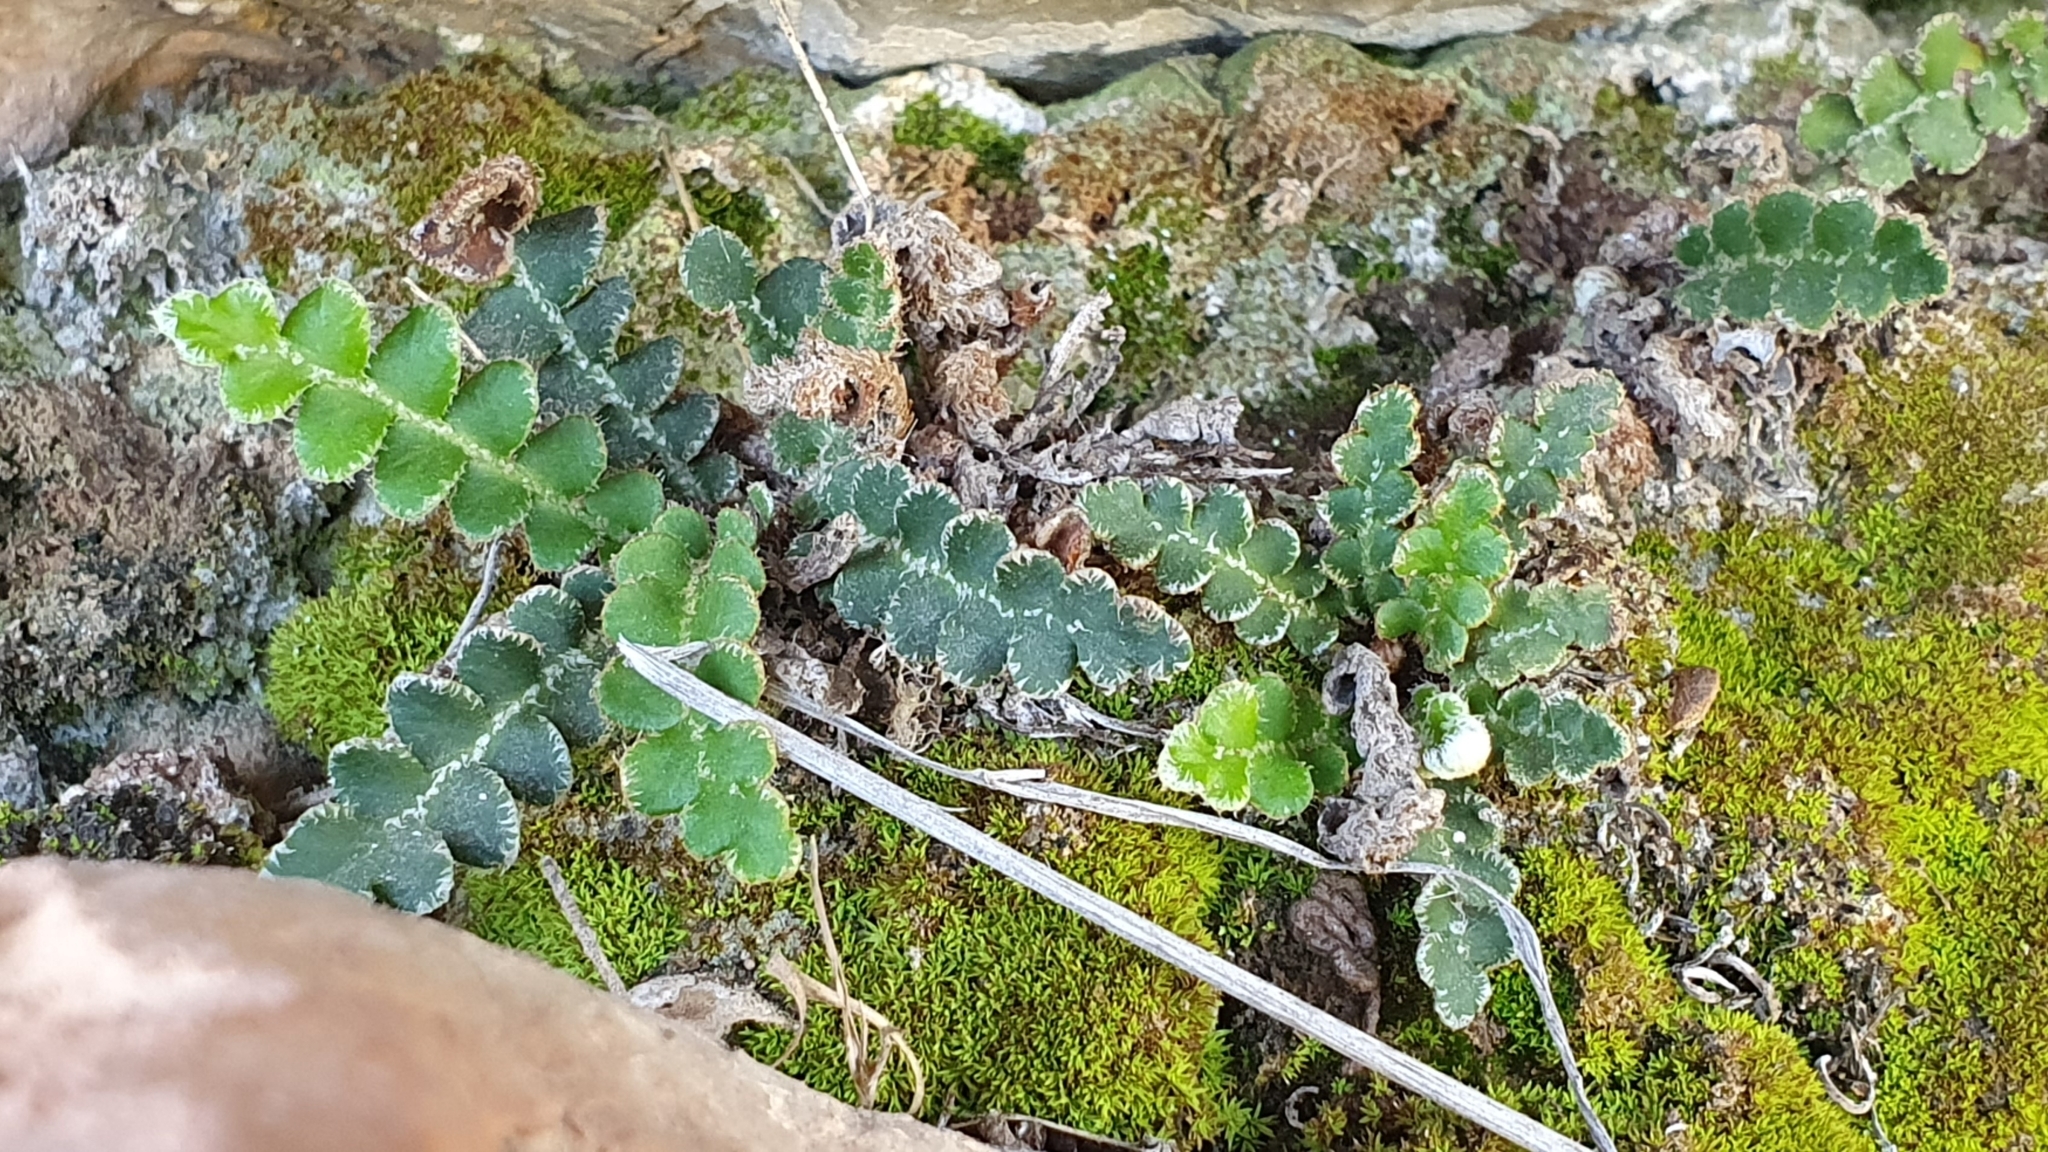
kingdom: Plantae
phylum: Tracheophyta
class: Polypodiopsida
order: Polypodiales
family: Aspleniaceae
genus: Asplenium
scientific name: Asplenium ceterach
